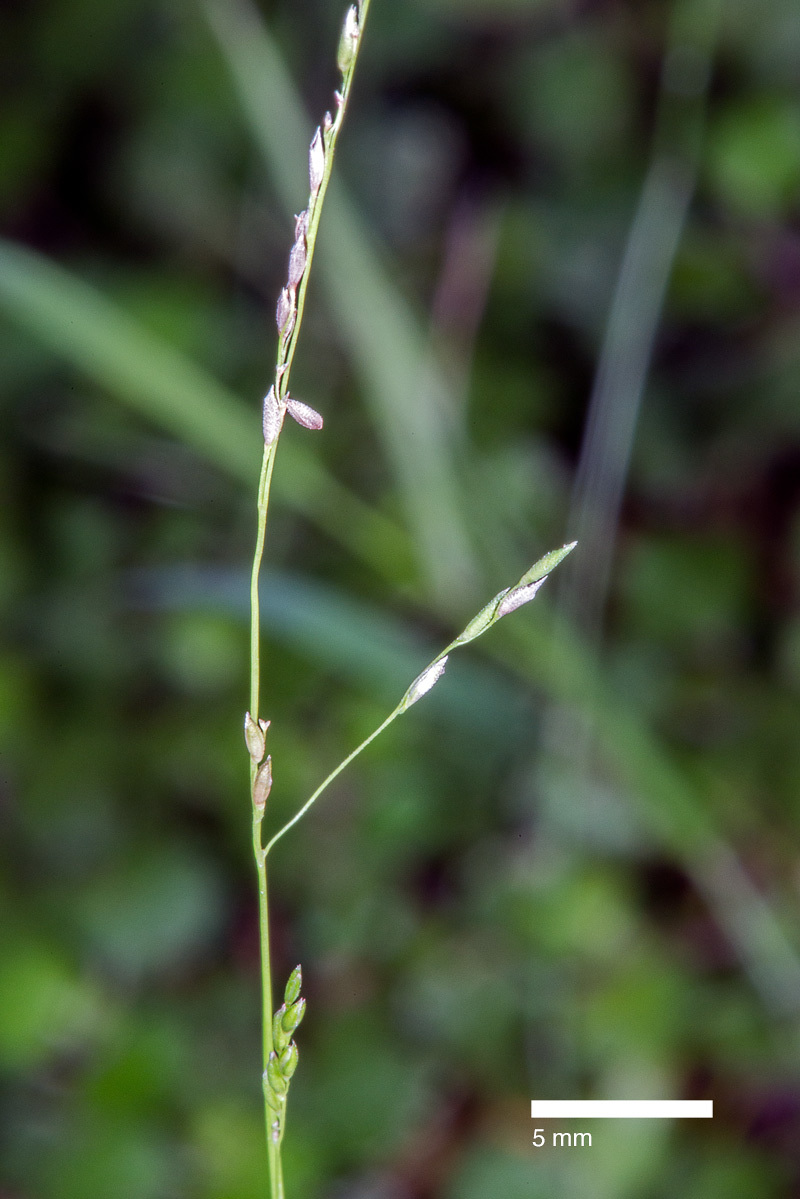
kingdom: Plantae
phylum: Tracheophyta
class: Liliopsida
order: Poales
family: Poaceae
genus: Simplicia
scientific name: Simplicia felix
